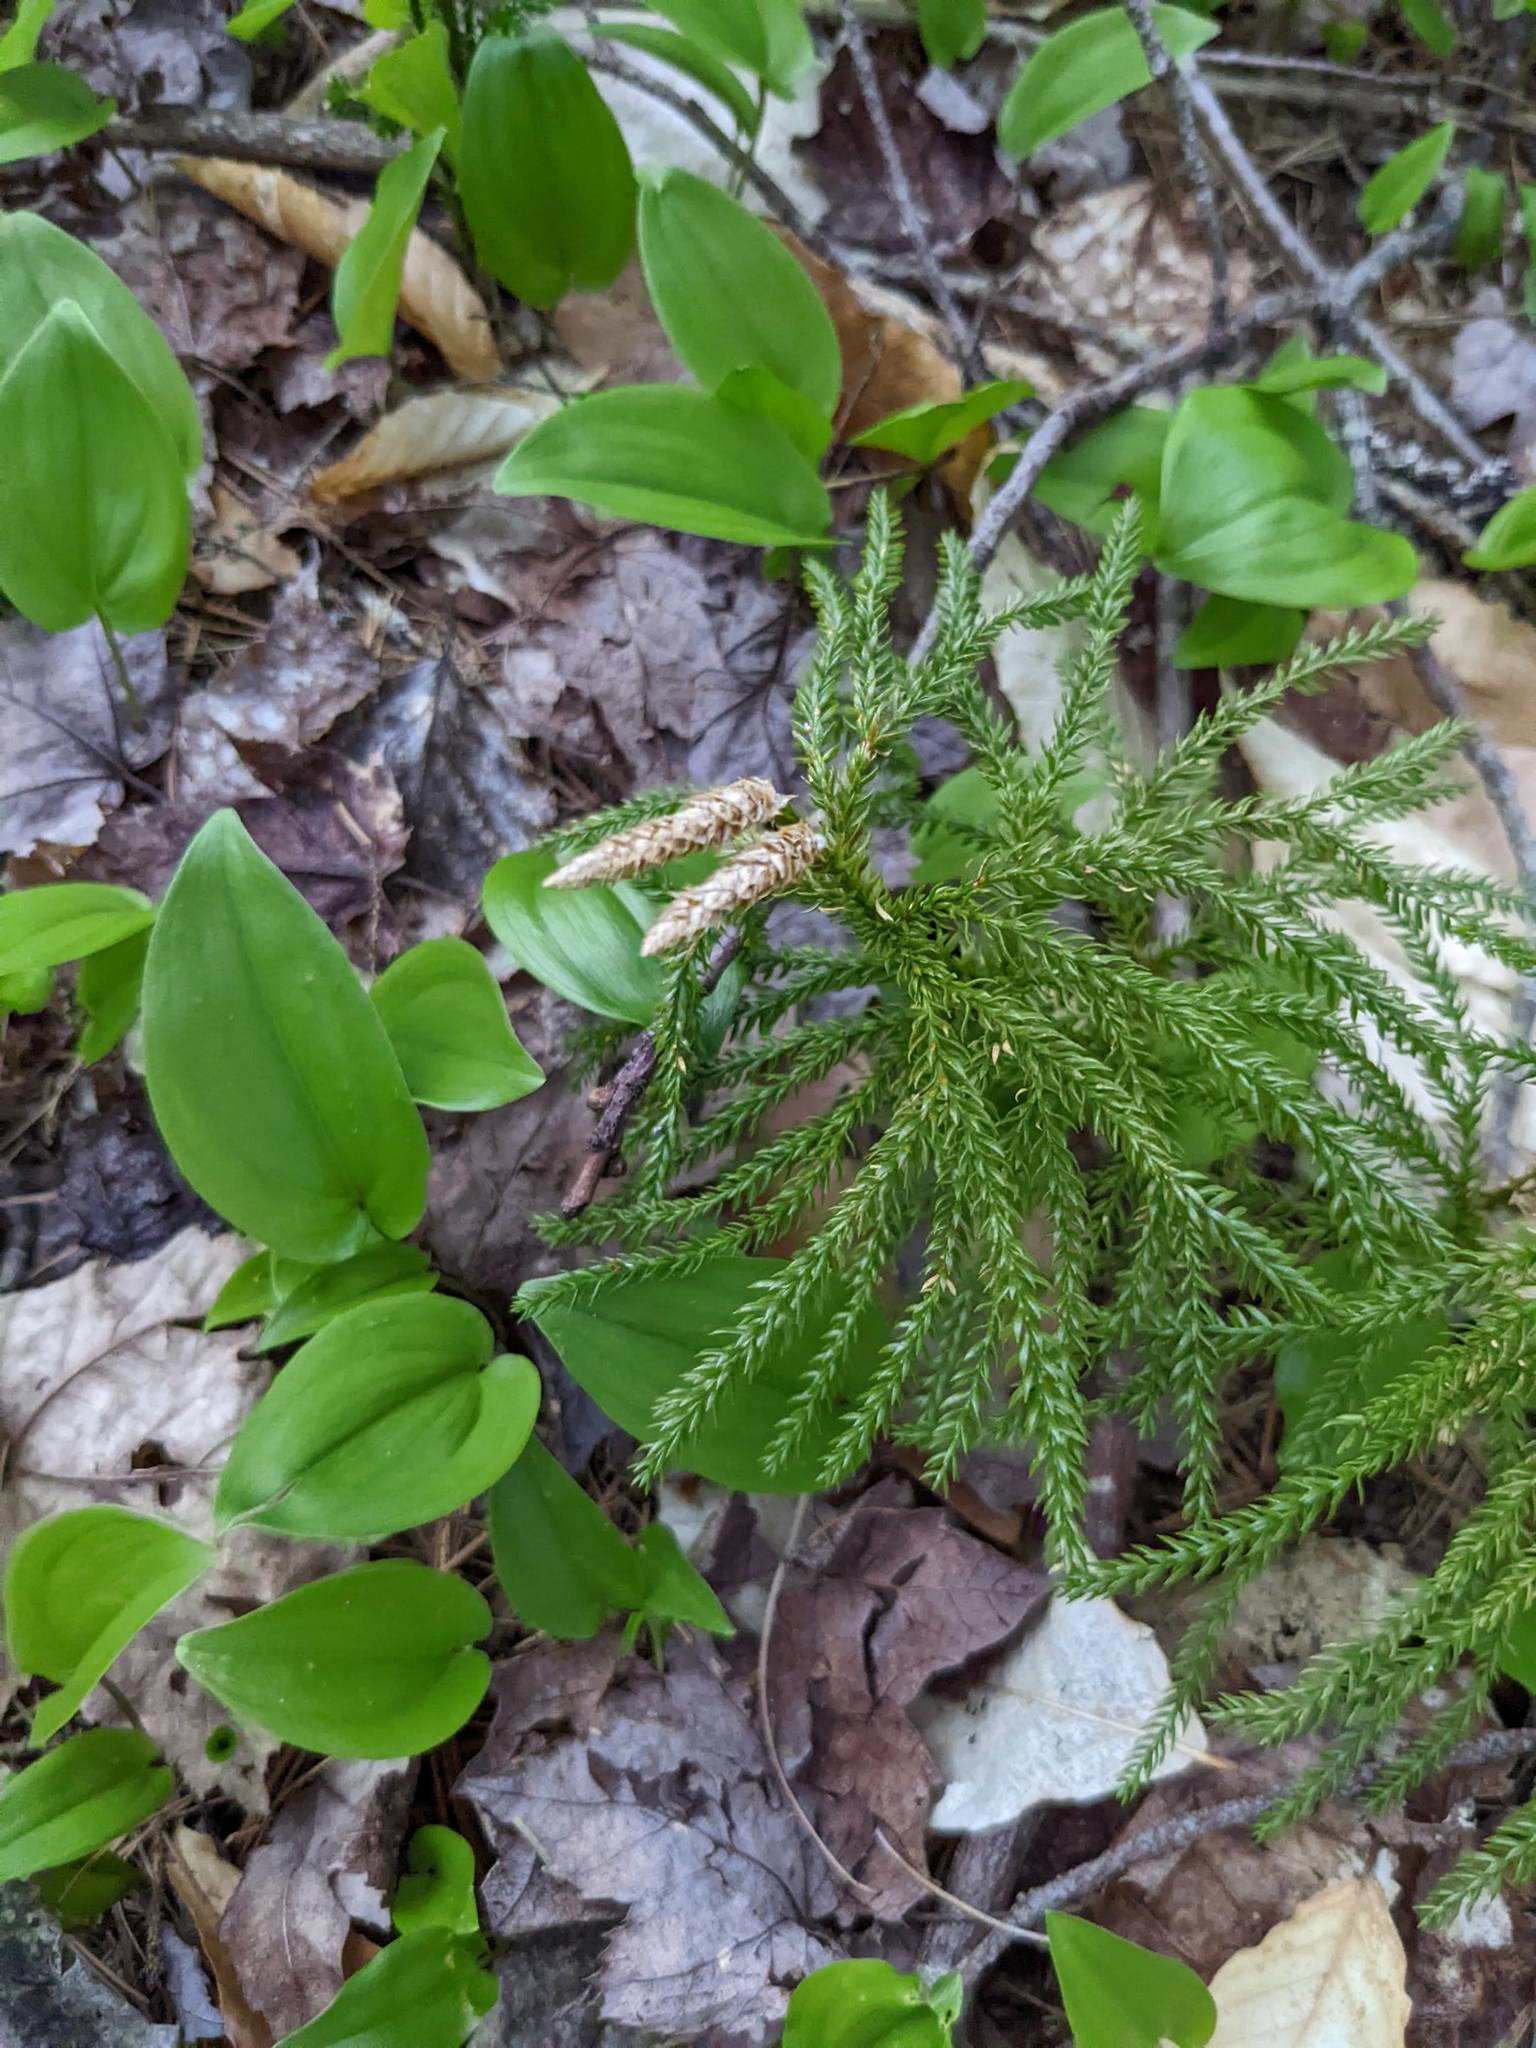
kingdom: Plantae
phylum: Tracheophyta
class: Liliopsida
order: Asparagales
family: Asparagaceae
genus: Maianthemum
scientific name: Maianthemum canadense
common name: False lily-of-the-valley
